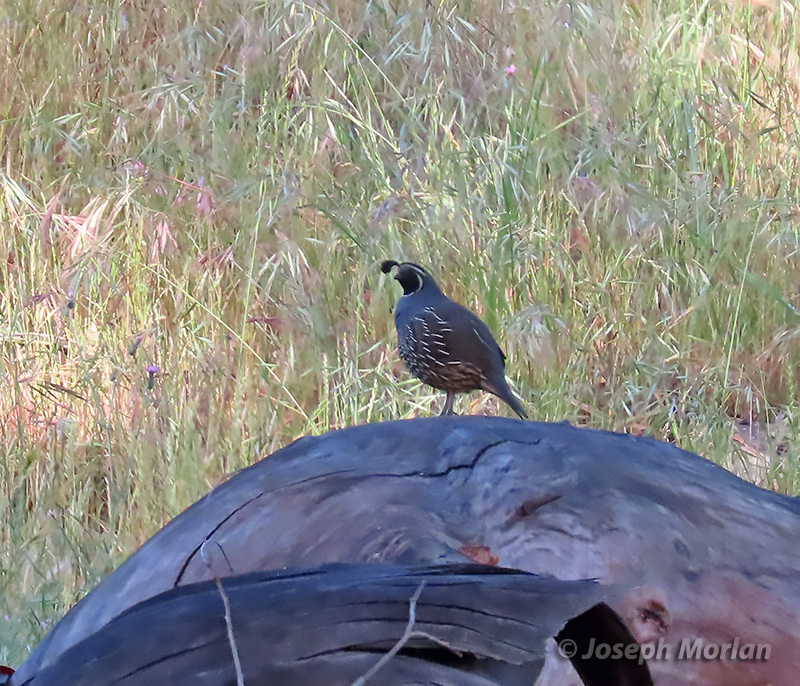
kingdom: Animalia
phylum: Chordata
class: Aves
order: Galliformes
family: Odontophoridae
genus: Callipepla
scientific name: Callipepla californica
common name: California quail
